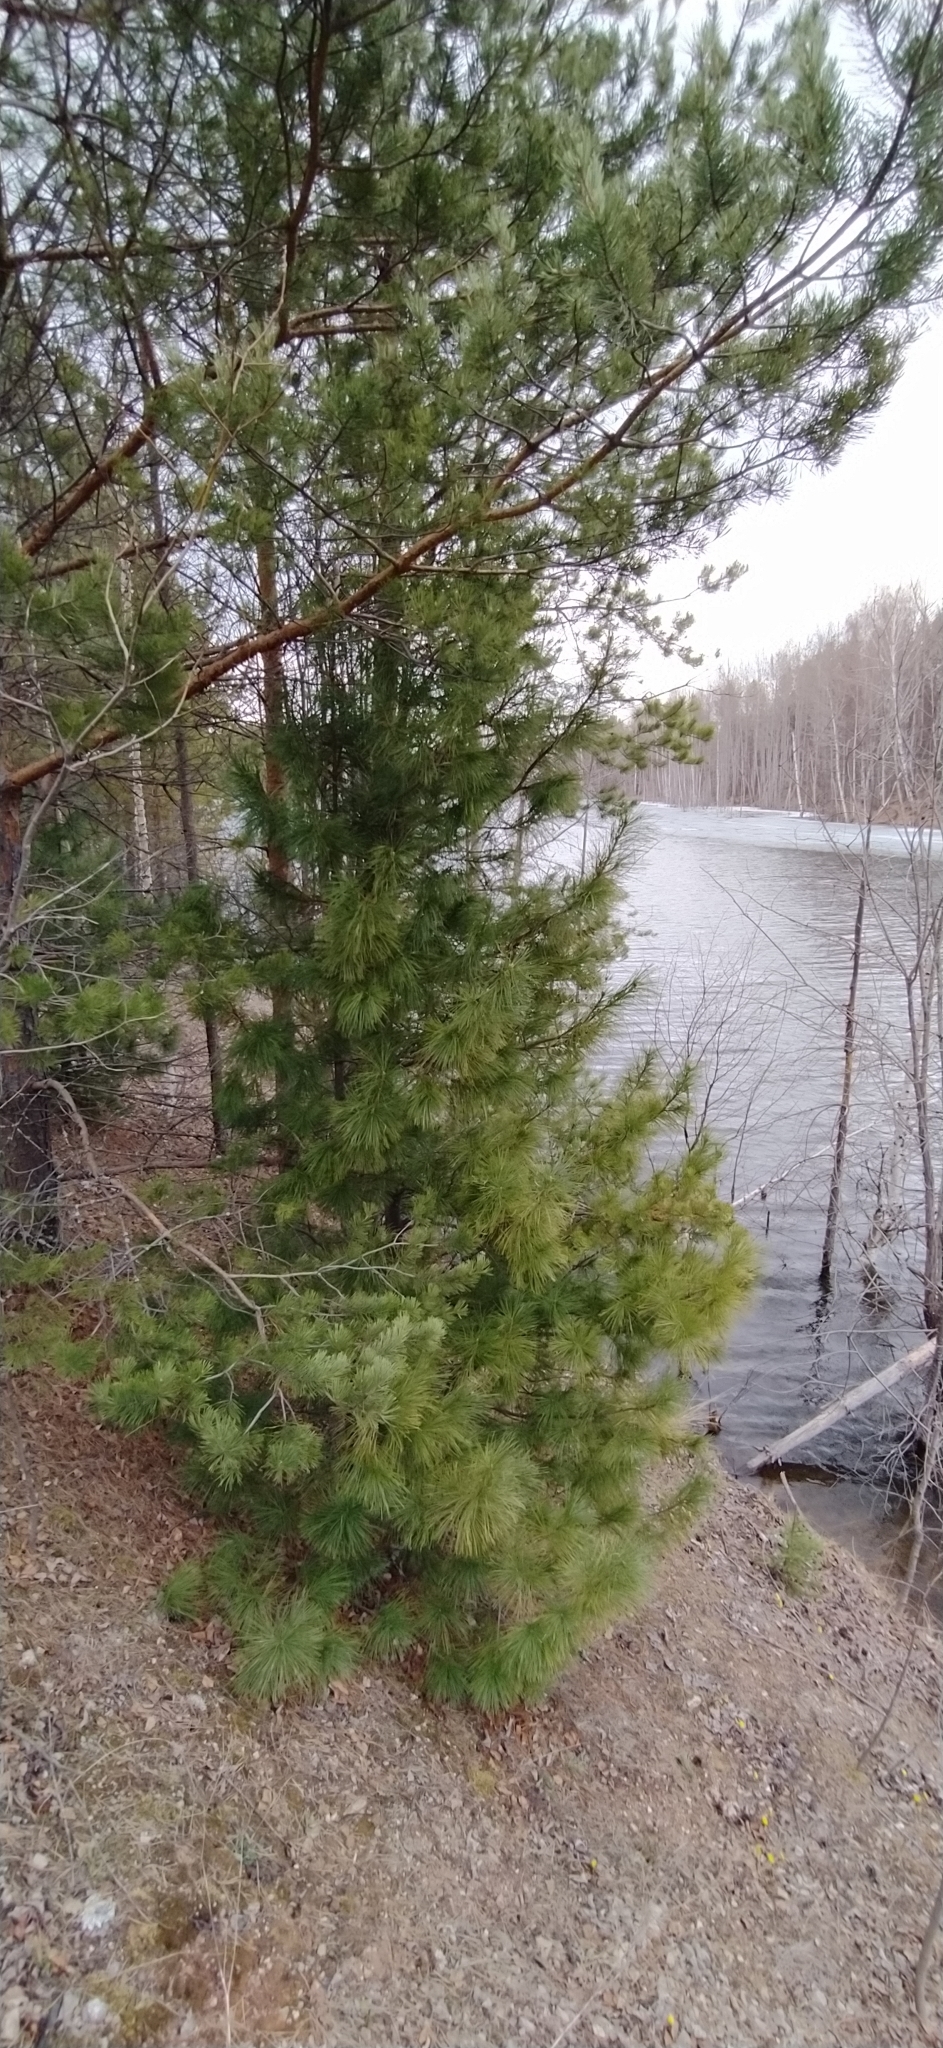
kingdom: Plantae
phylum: Tracheophyta
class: Pinopsida
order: Pinales
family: Pinaceae
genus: Pinus
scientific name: Pinus sibirica
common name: Siberian pine
